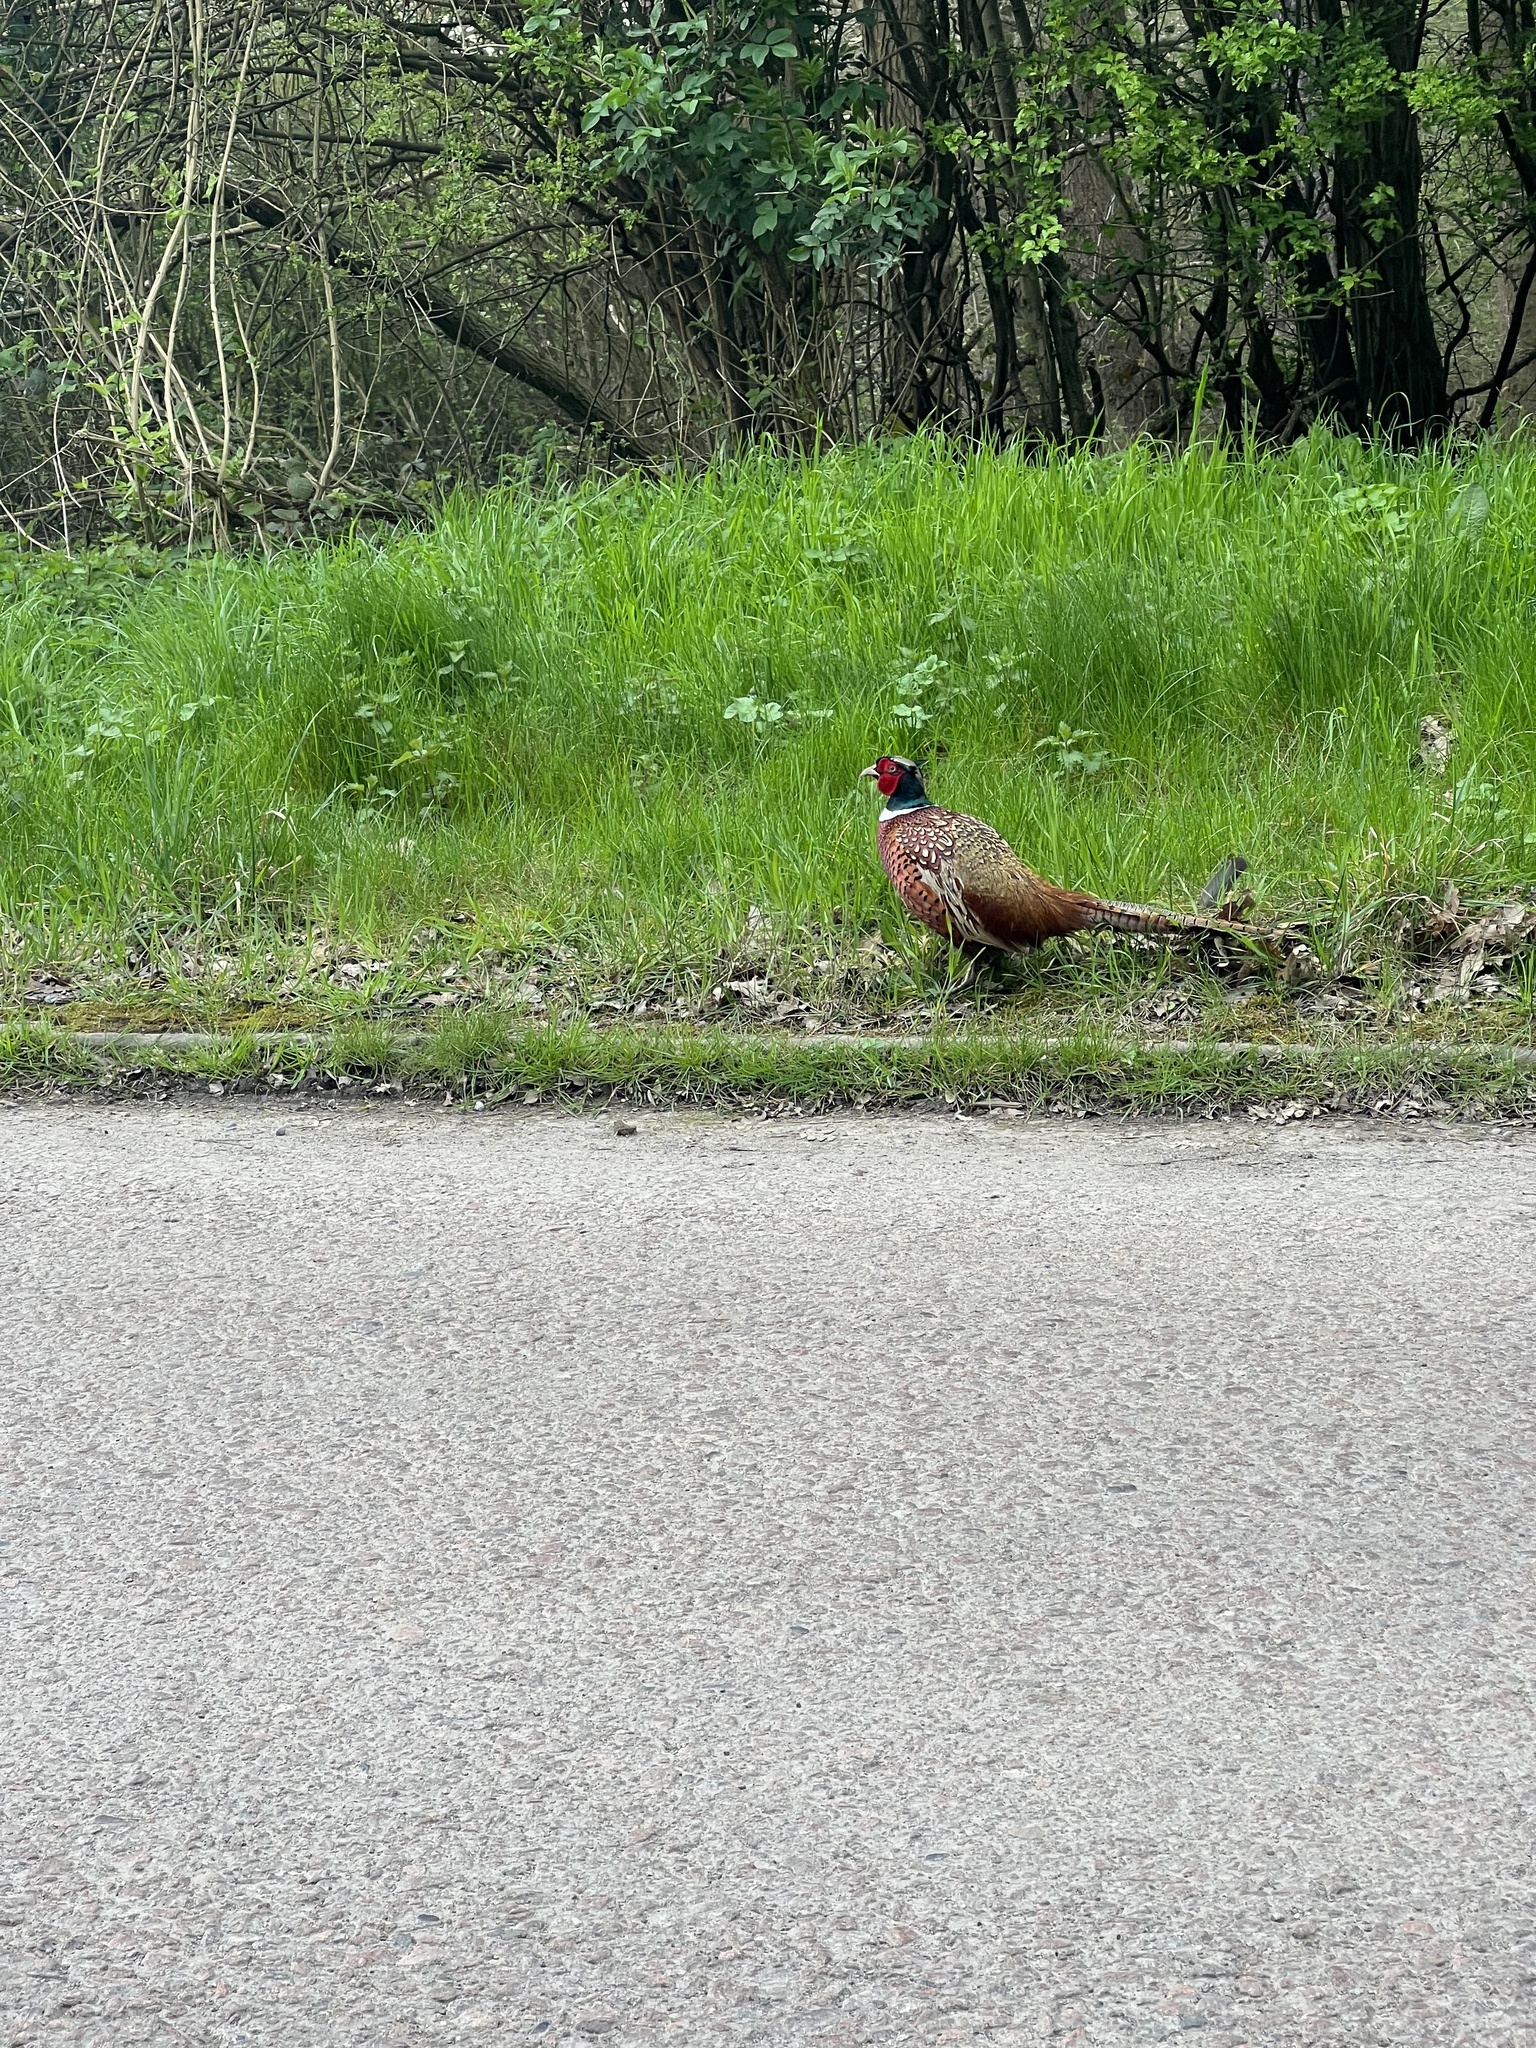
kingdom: Animalia
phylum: Chordata
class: Aves
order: Galliformes
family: Phasianidae
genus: Phasianus
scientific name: Phasianus colchicus
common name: Common pheasant
